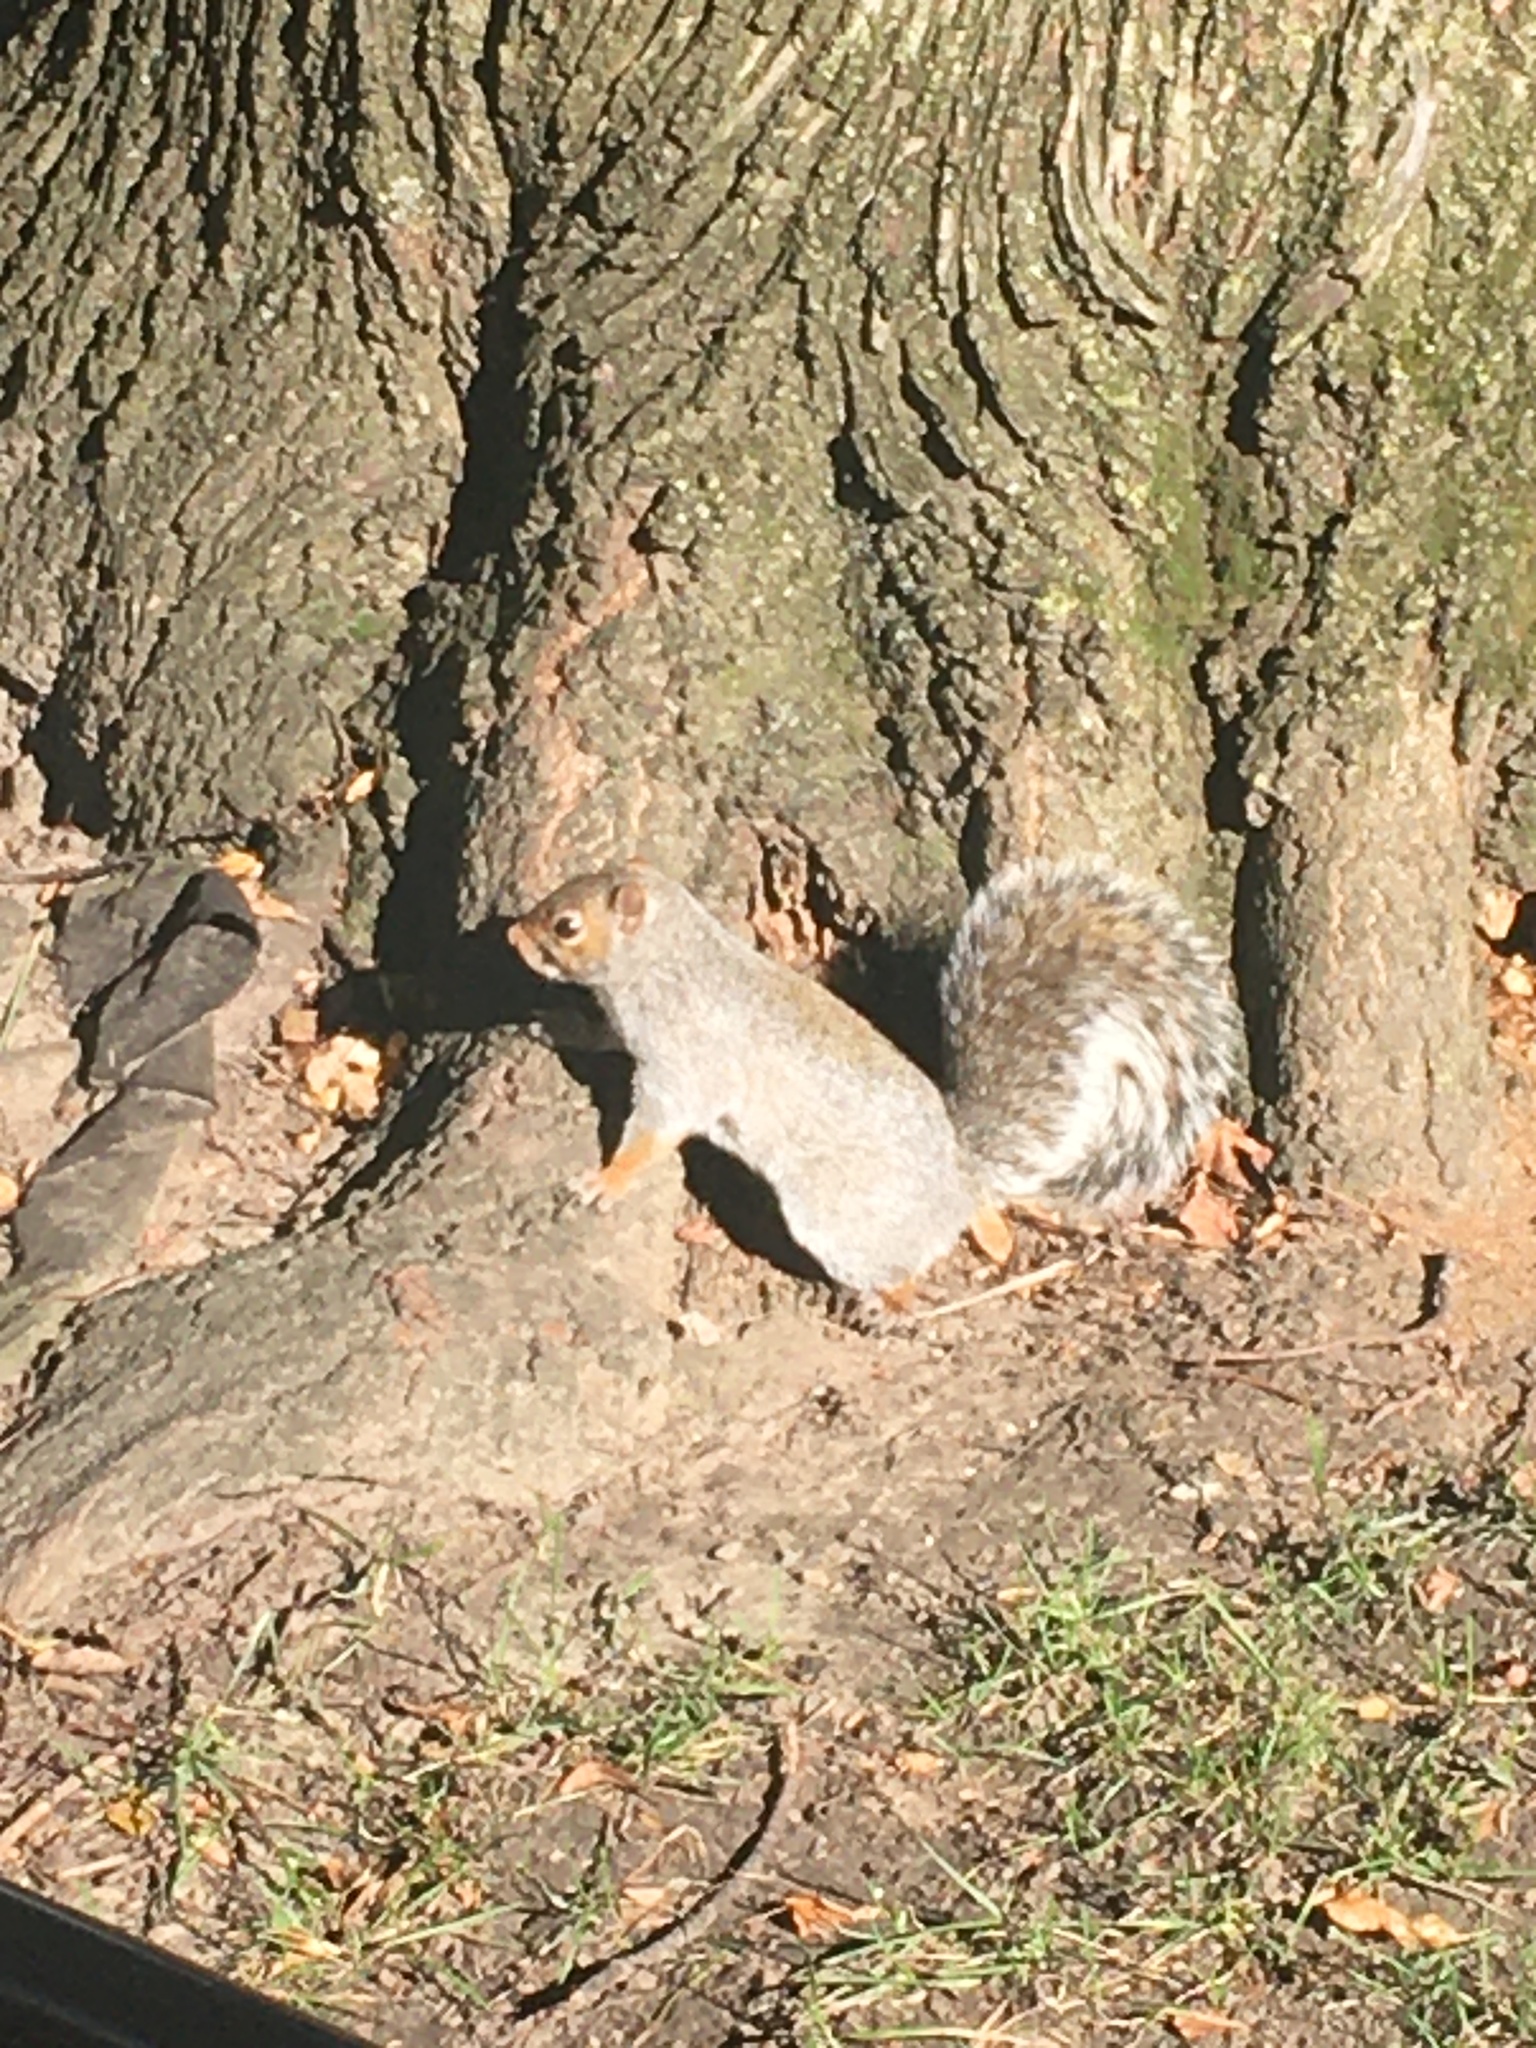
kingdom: Animalia
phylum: Chordata
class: Mammalia
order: Rodentia
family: Sciuridae
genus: Sciurus
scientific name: Sciurus carolinensis
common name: Eastern gray squirrel
